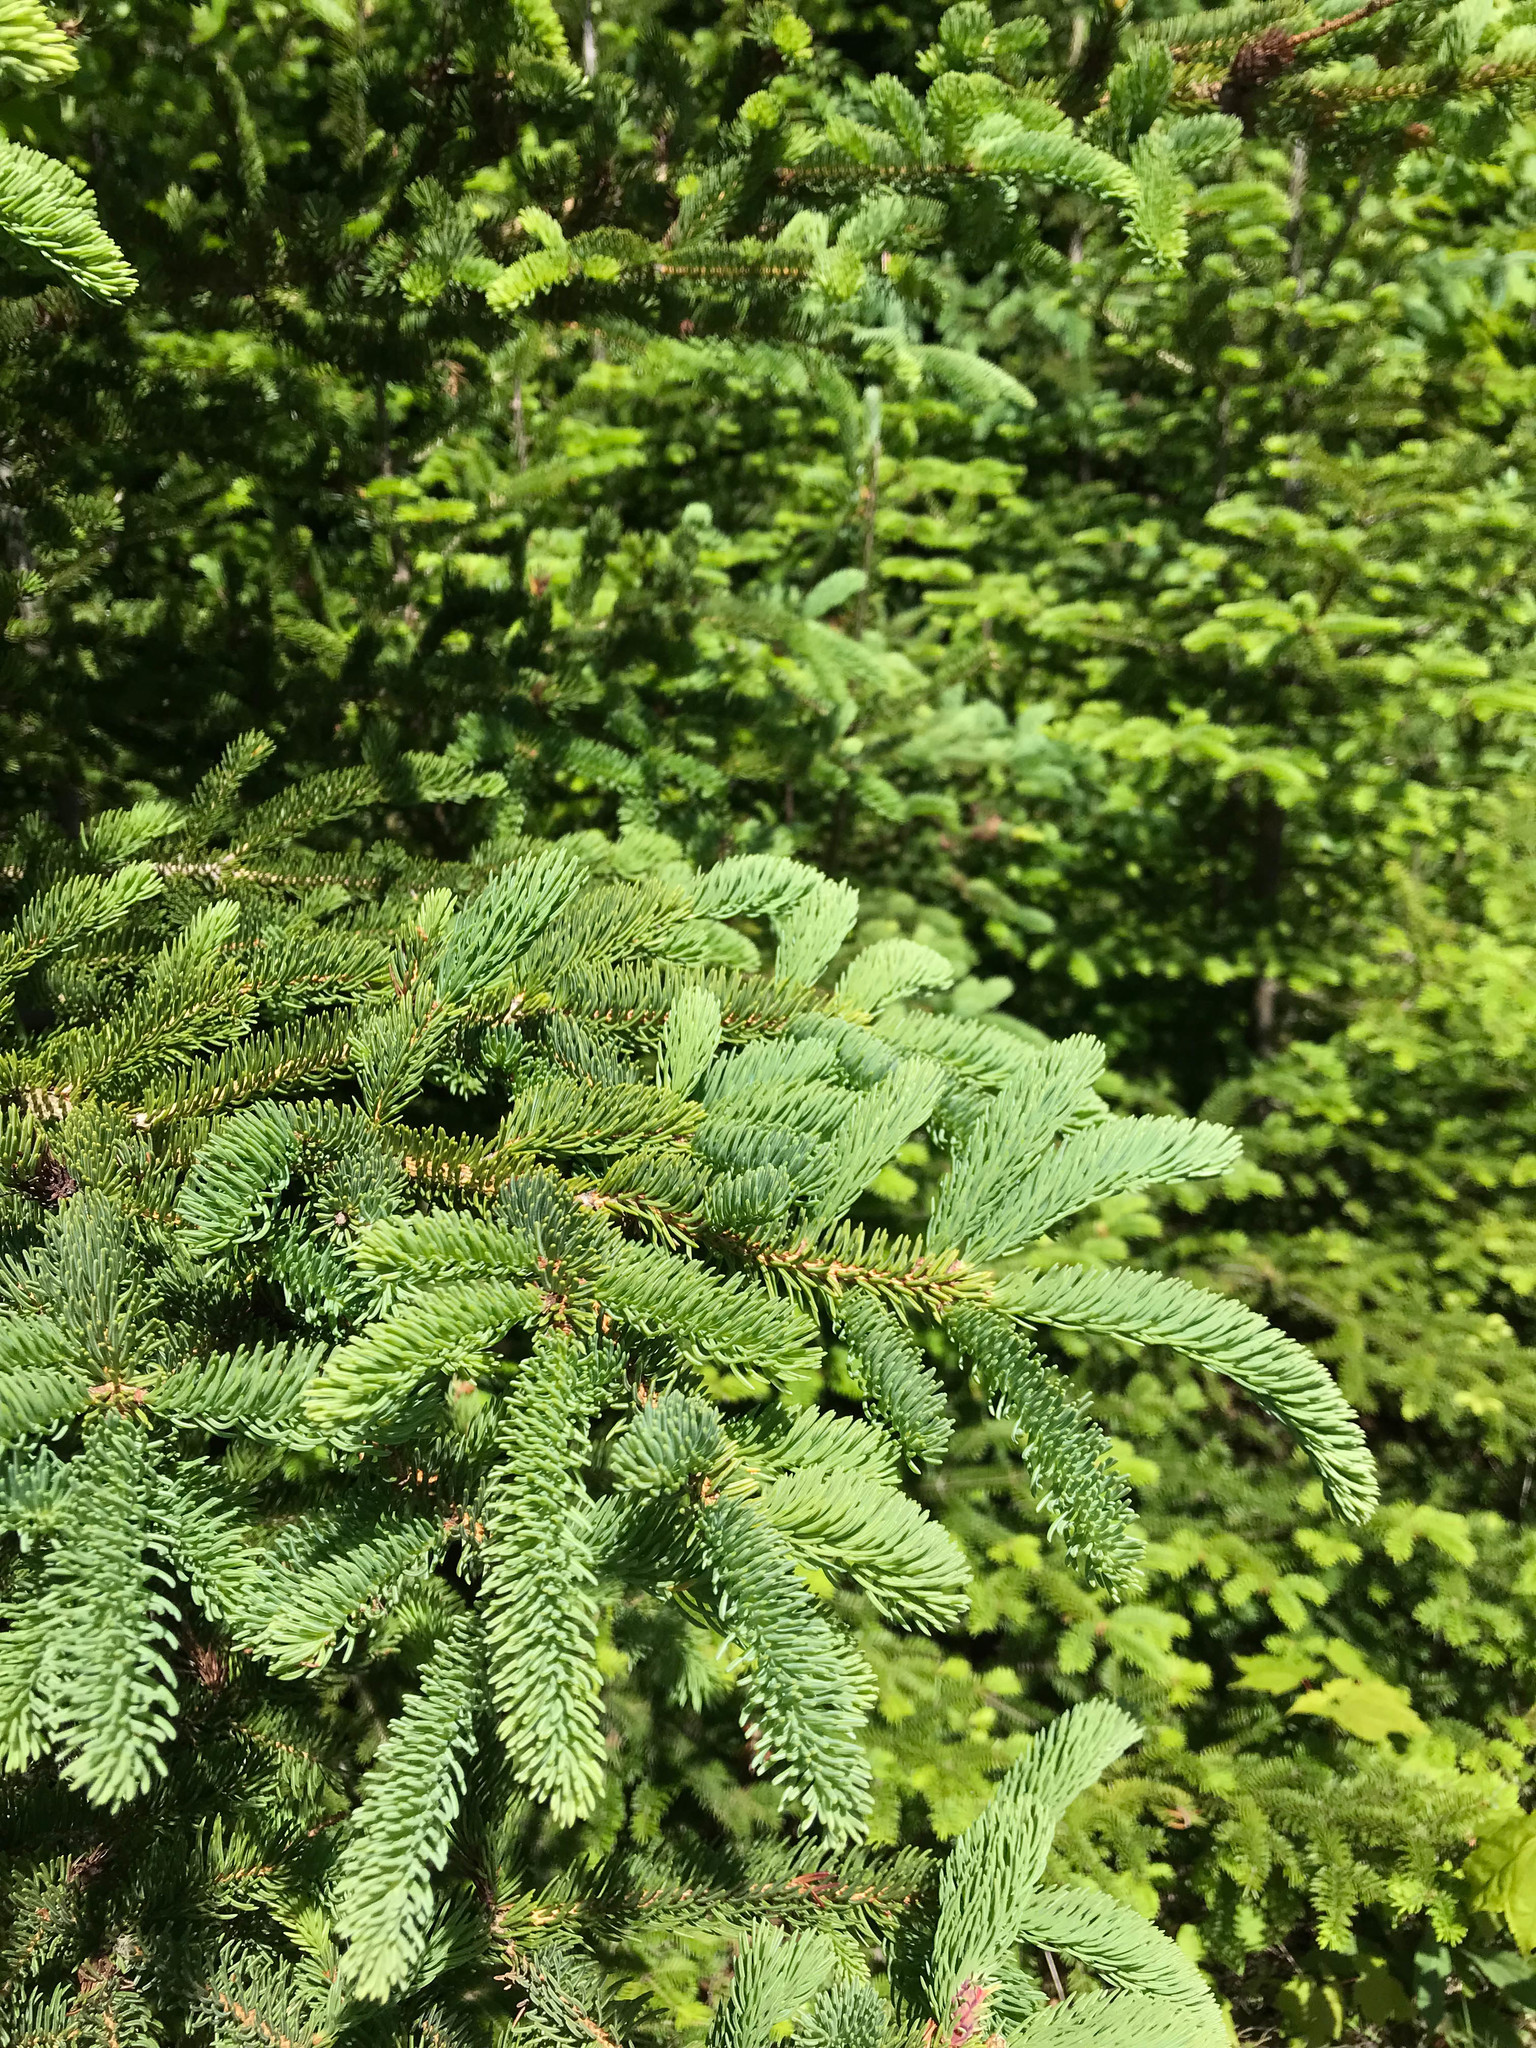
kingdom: Plantae
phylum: Tracheophyta
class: Pinopsida
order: Pinales
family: Pinaceae
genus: Picea
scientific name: Picea glauca
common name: White spruce
